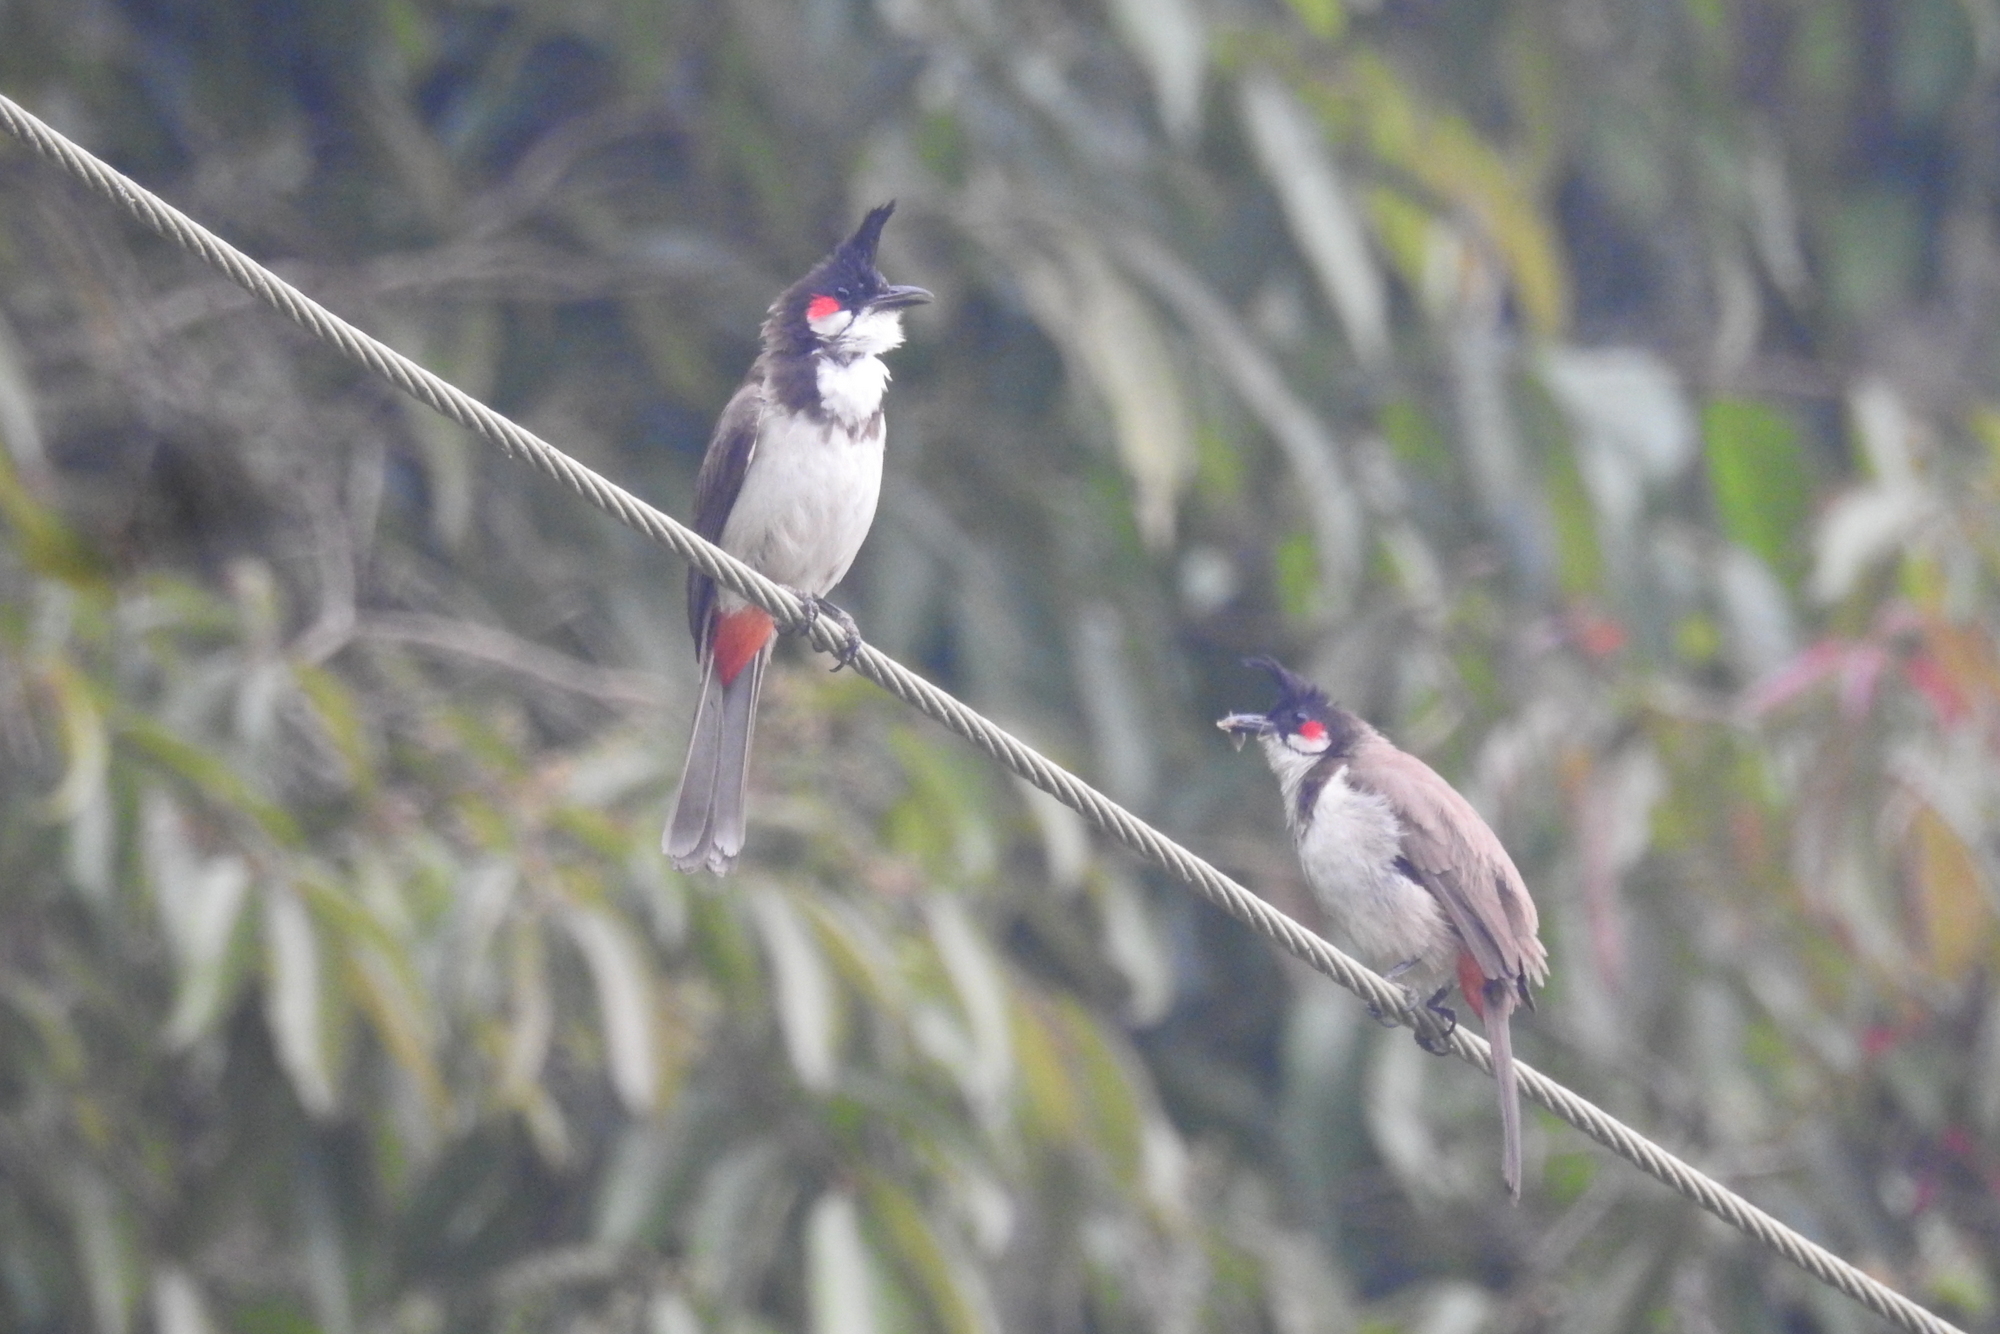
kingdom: Animalia
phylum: Chordata
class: Aves
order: Passeriformes
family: Pycnonotidae
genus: Pycnonotus
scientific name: Pycnonotus jocosus
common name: Red-whiskered bulbul
